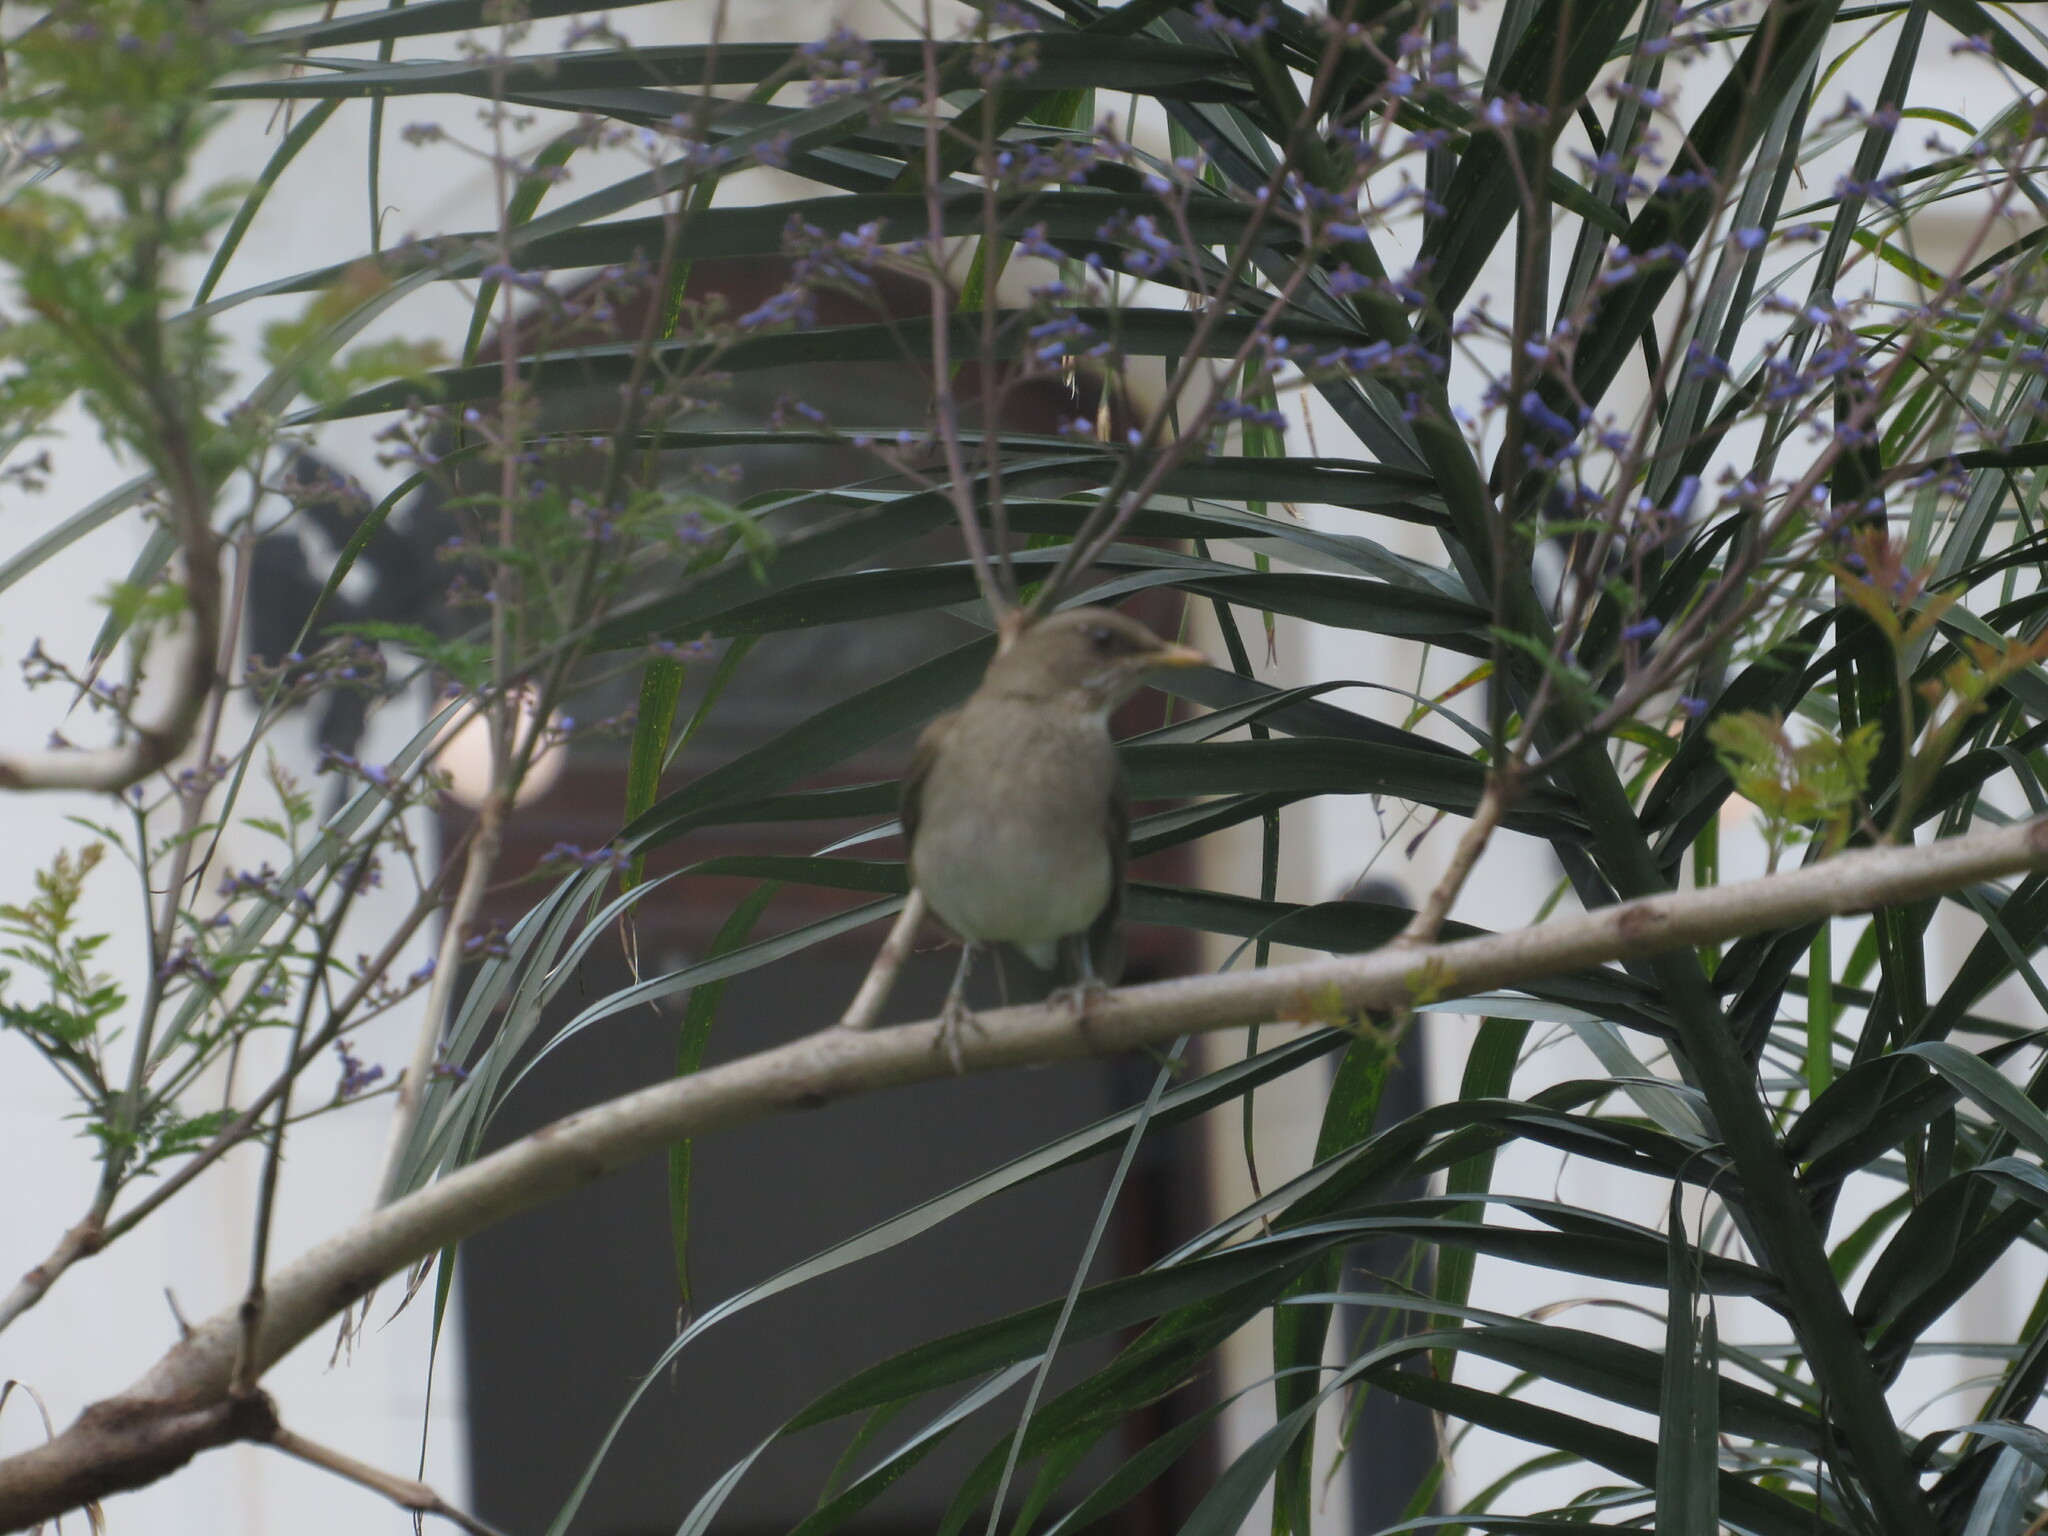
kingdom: Animalia
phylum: Chordata
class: Aves
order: Passeriformes
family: Turdidae
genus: Turdus
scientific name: Turdus amaurochalinus
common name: Creamy-bellied thrush
